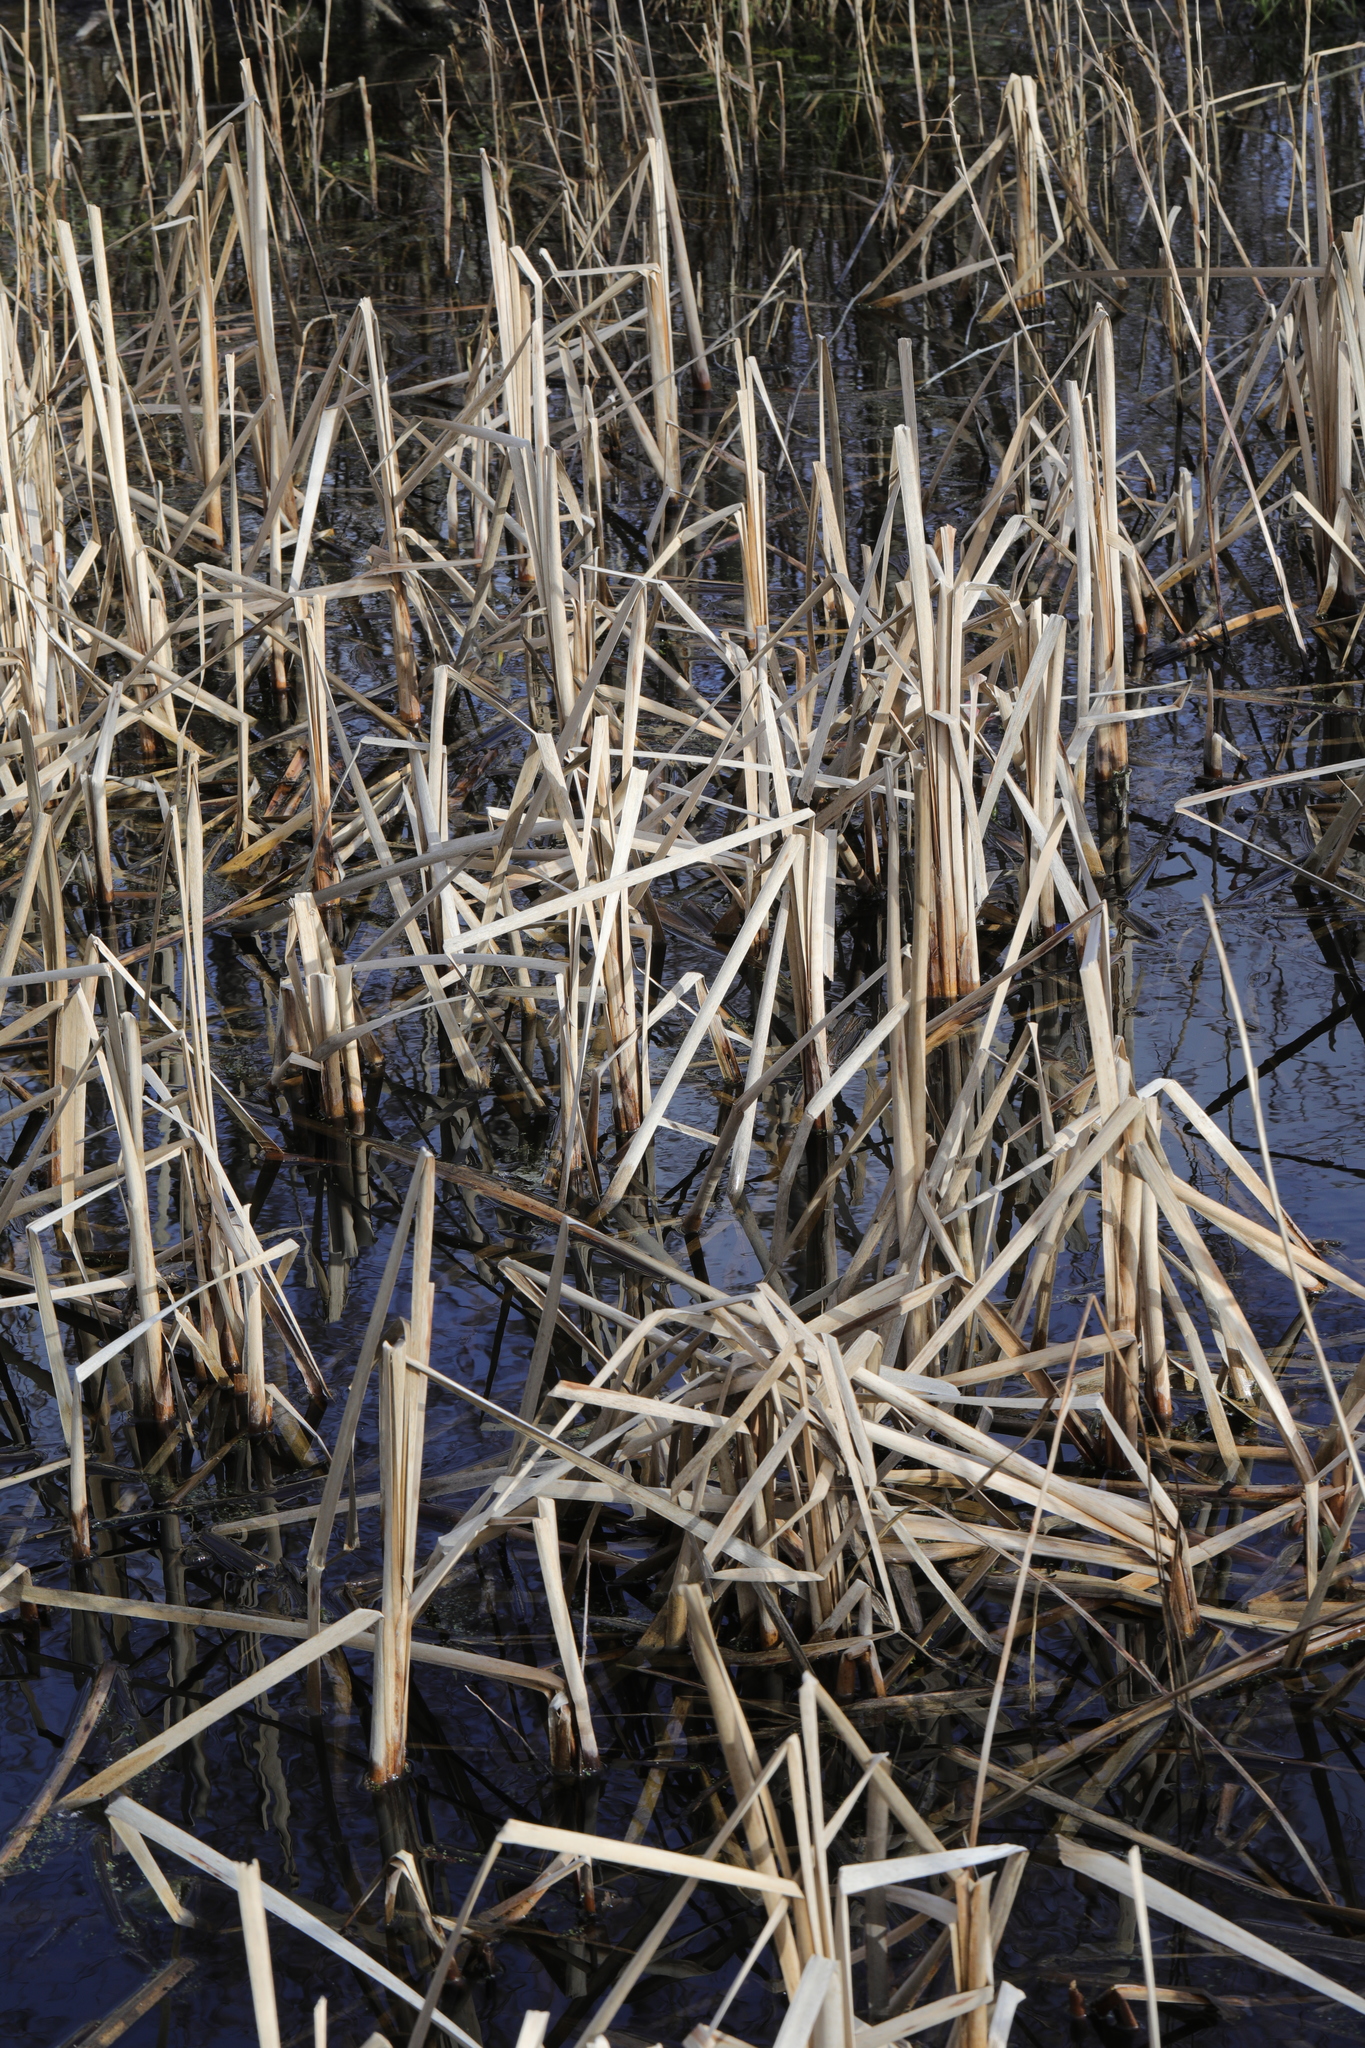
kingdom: Plantae
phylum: Tracheophyta
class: Liliopsida
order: Poales
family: Typhaceae
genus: Typha
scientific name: Typha latifolia
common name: Broadleaf cattail
